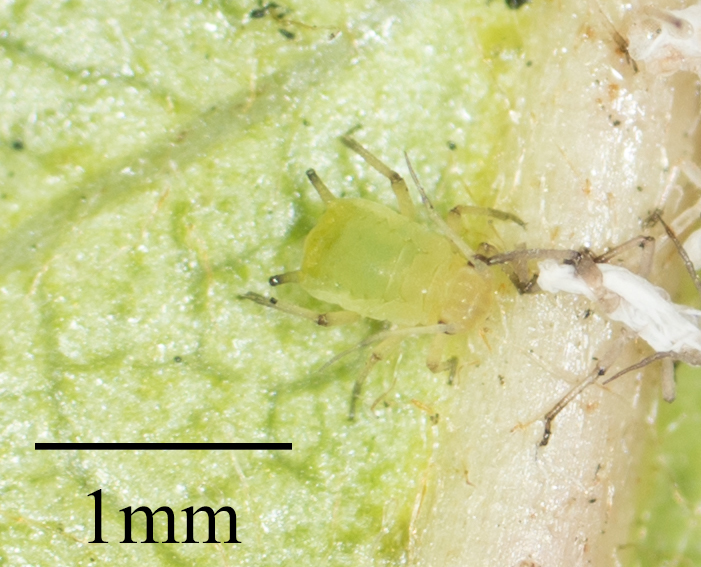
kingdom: Animalia
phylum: Arthropoda
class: Insecta
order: Hemiptera
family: Aphididae
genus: Aphis
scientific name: Aphis spiraecola
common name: Spirea aphid
